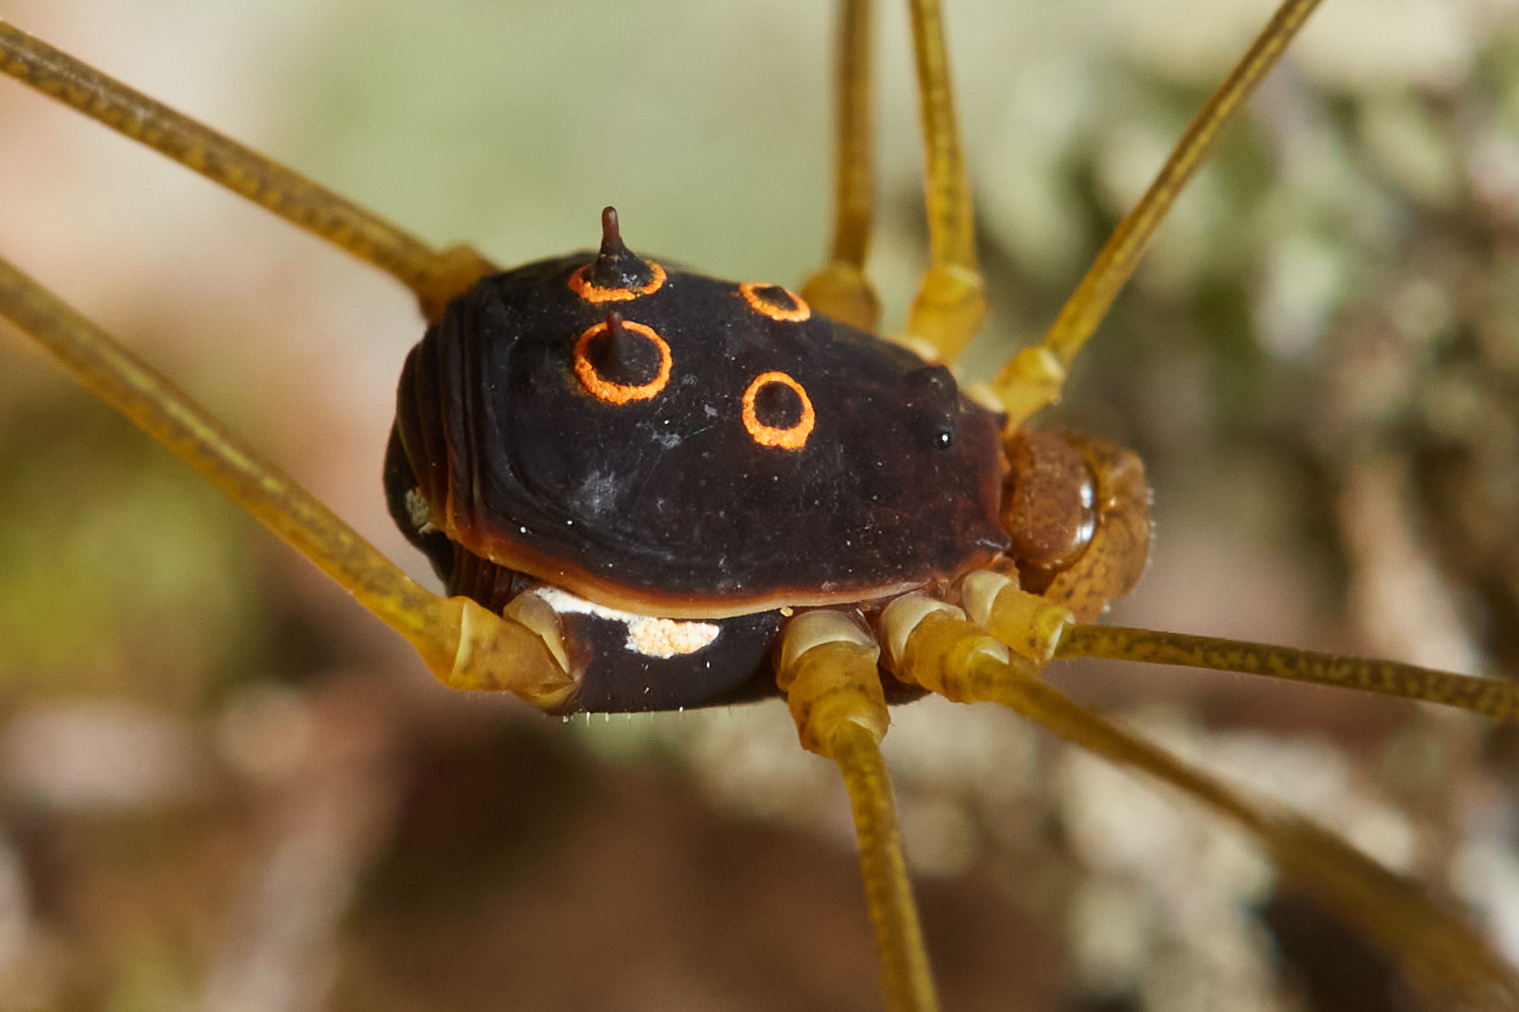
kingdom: Animalia
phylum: Arthropoda
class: Arachnida
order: Opiliones
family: Cosmetidae
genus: Cynortellana
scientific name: Cynortellana oculata
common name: Harvestmen
